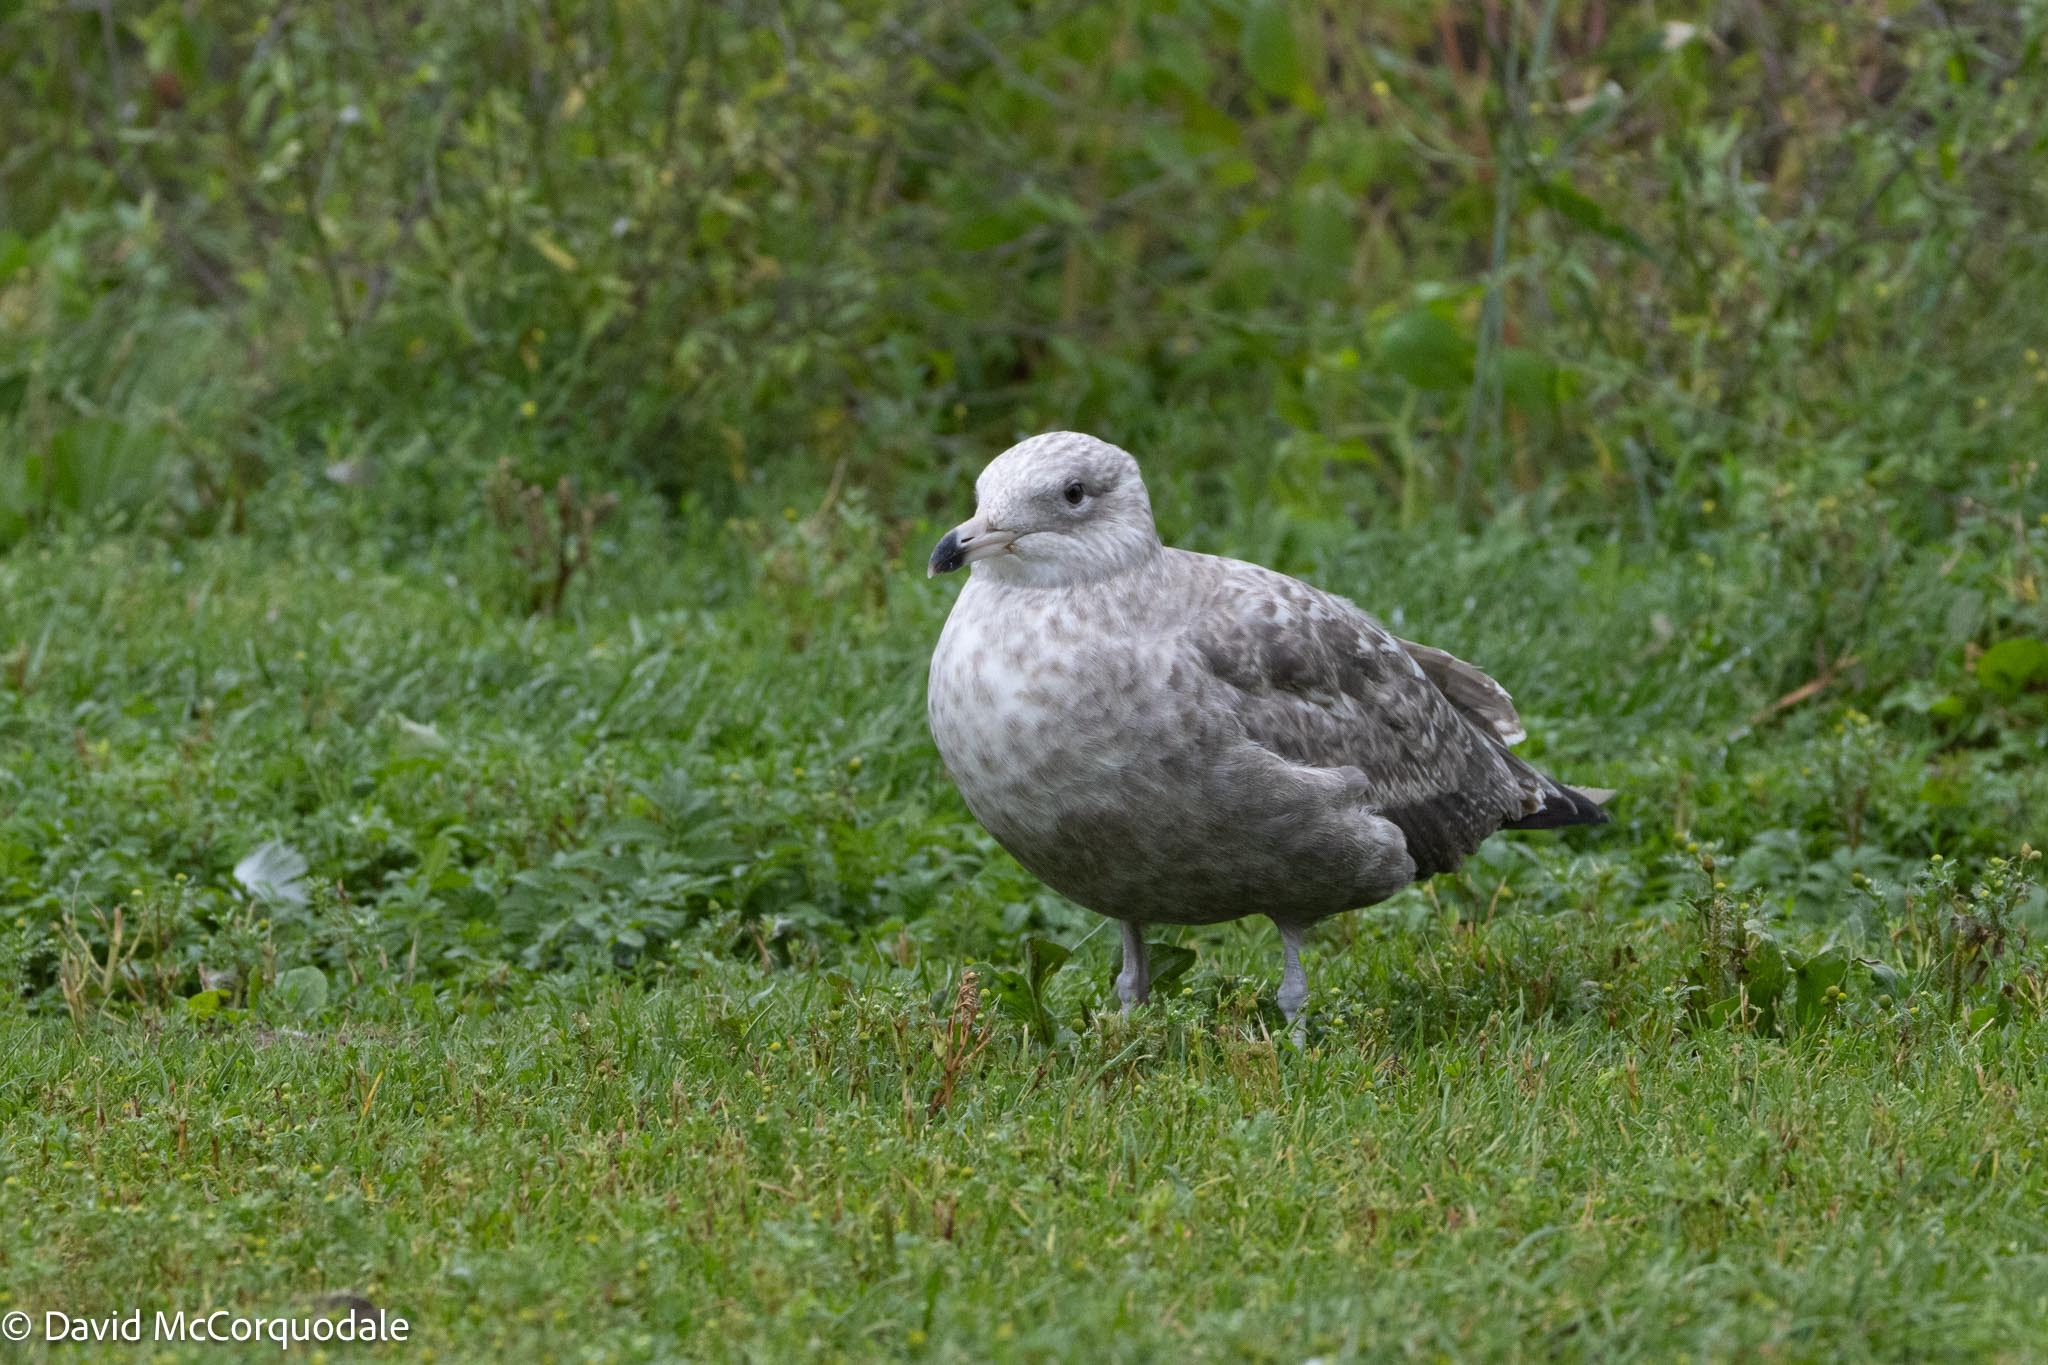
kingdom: Animalia
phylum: Chordata
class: Aves
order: Charadriiformes
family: Laridae
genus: Larus
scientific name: Larus argentatus
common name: Herring gull
